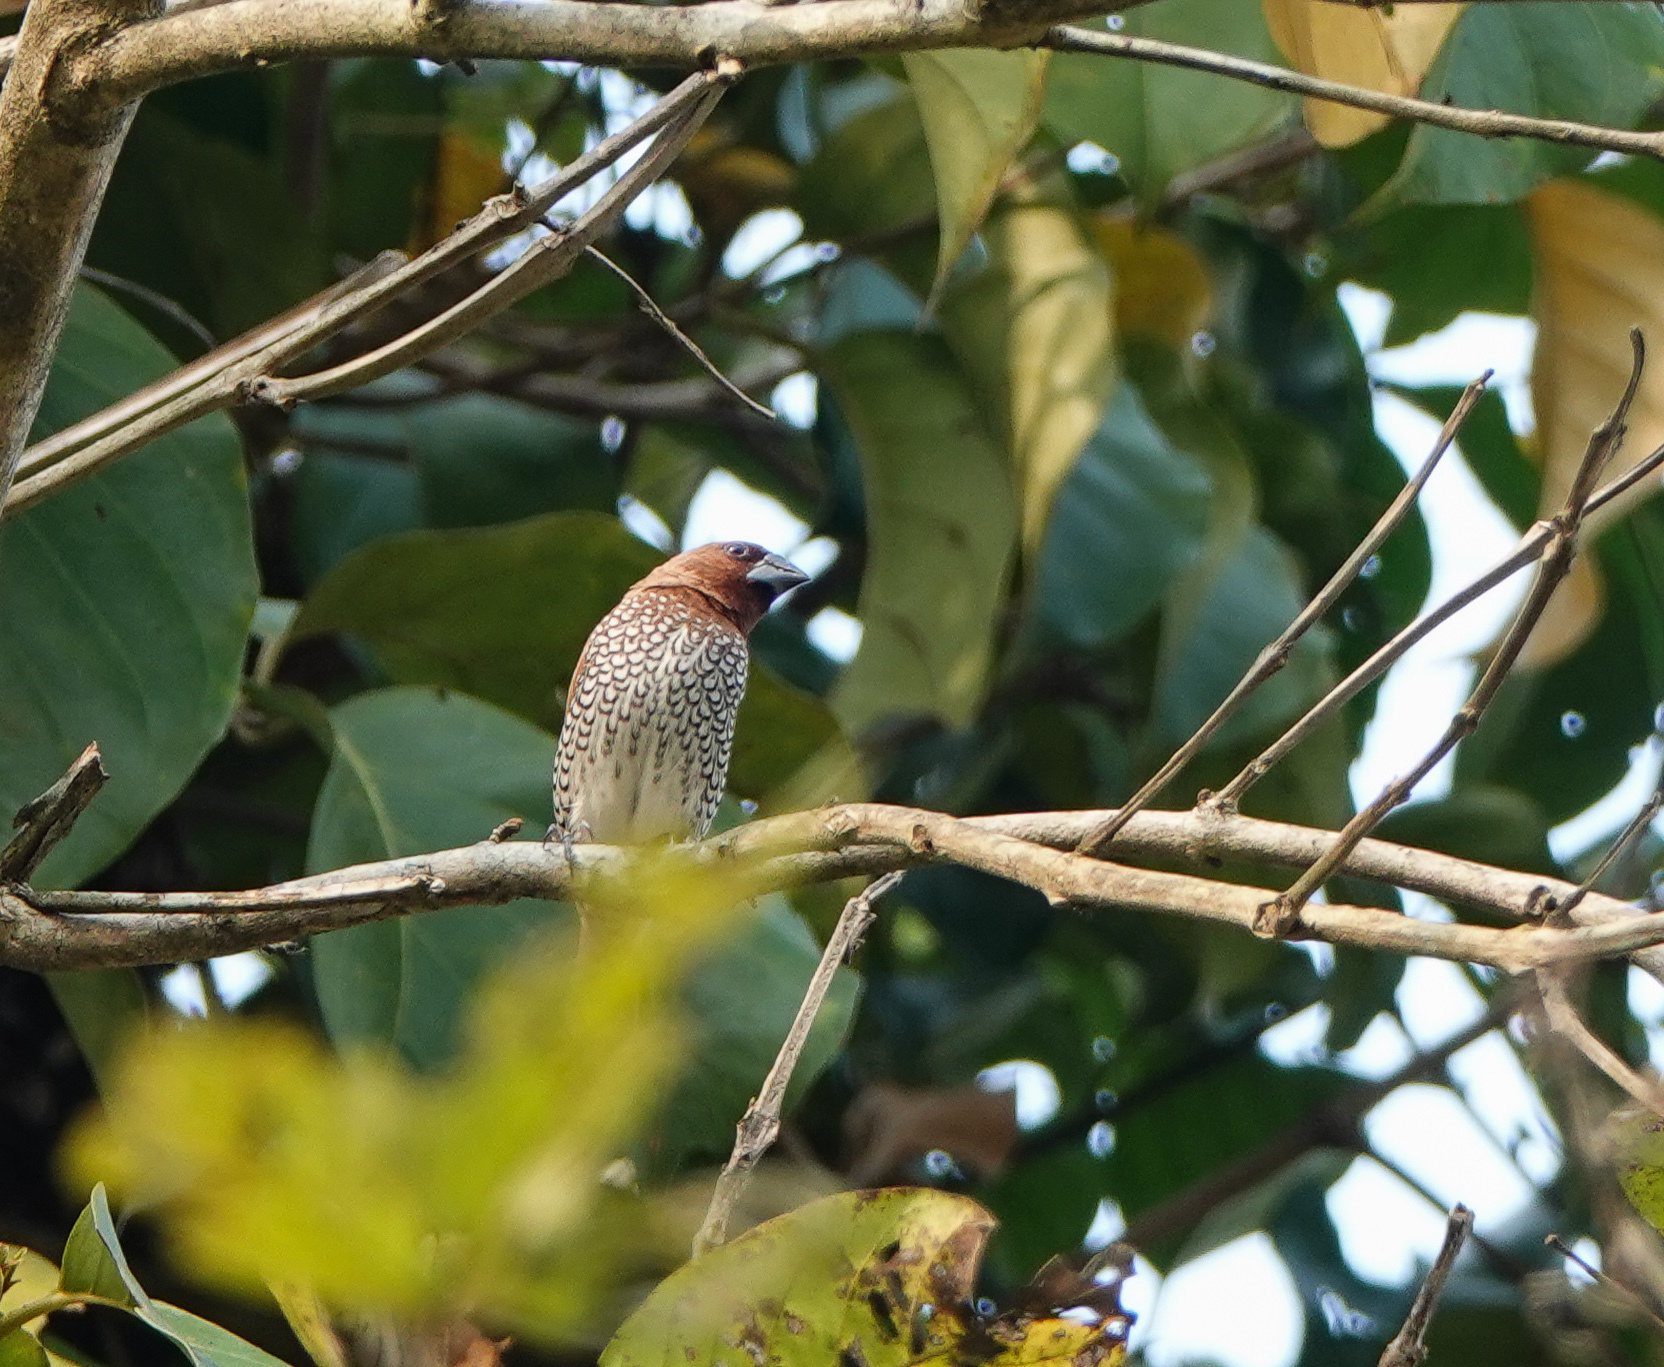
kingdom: Animalia
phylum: Chordata
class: Aves
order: Passeriformes
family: Estrildidae
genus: Lonchura
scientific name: Lonchura punctulata
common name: Scaly-breasted munia
